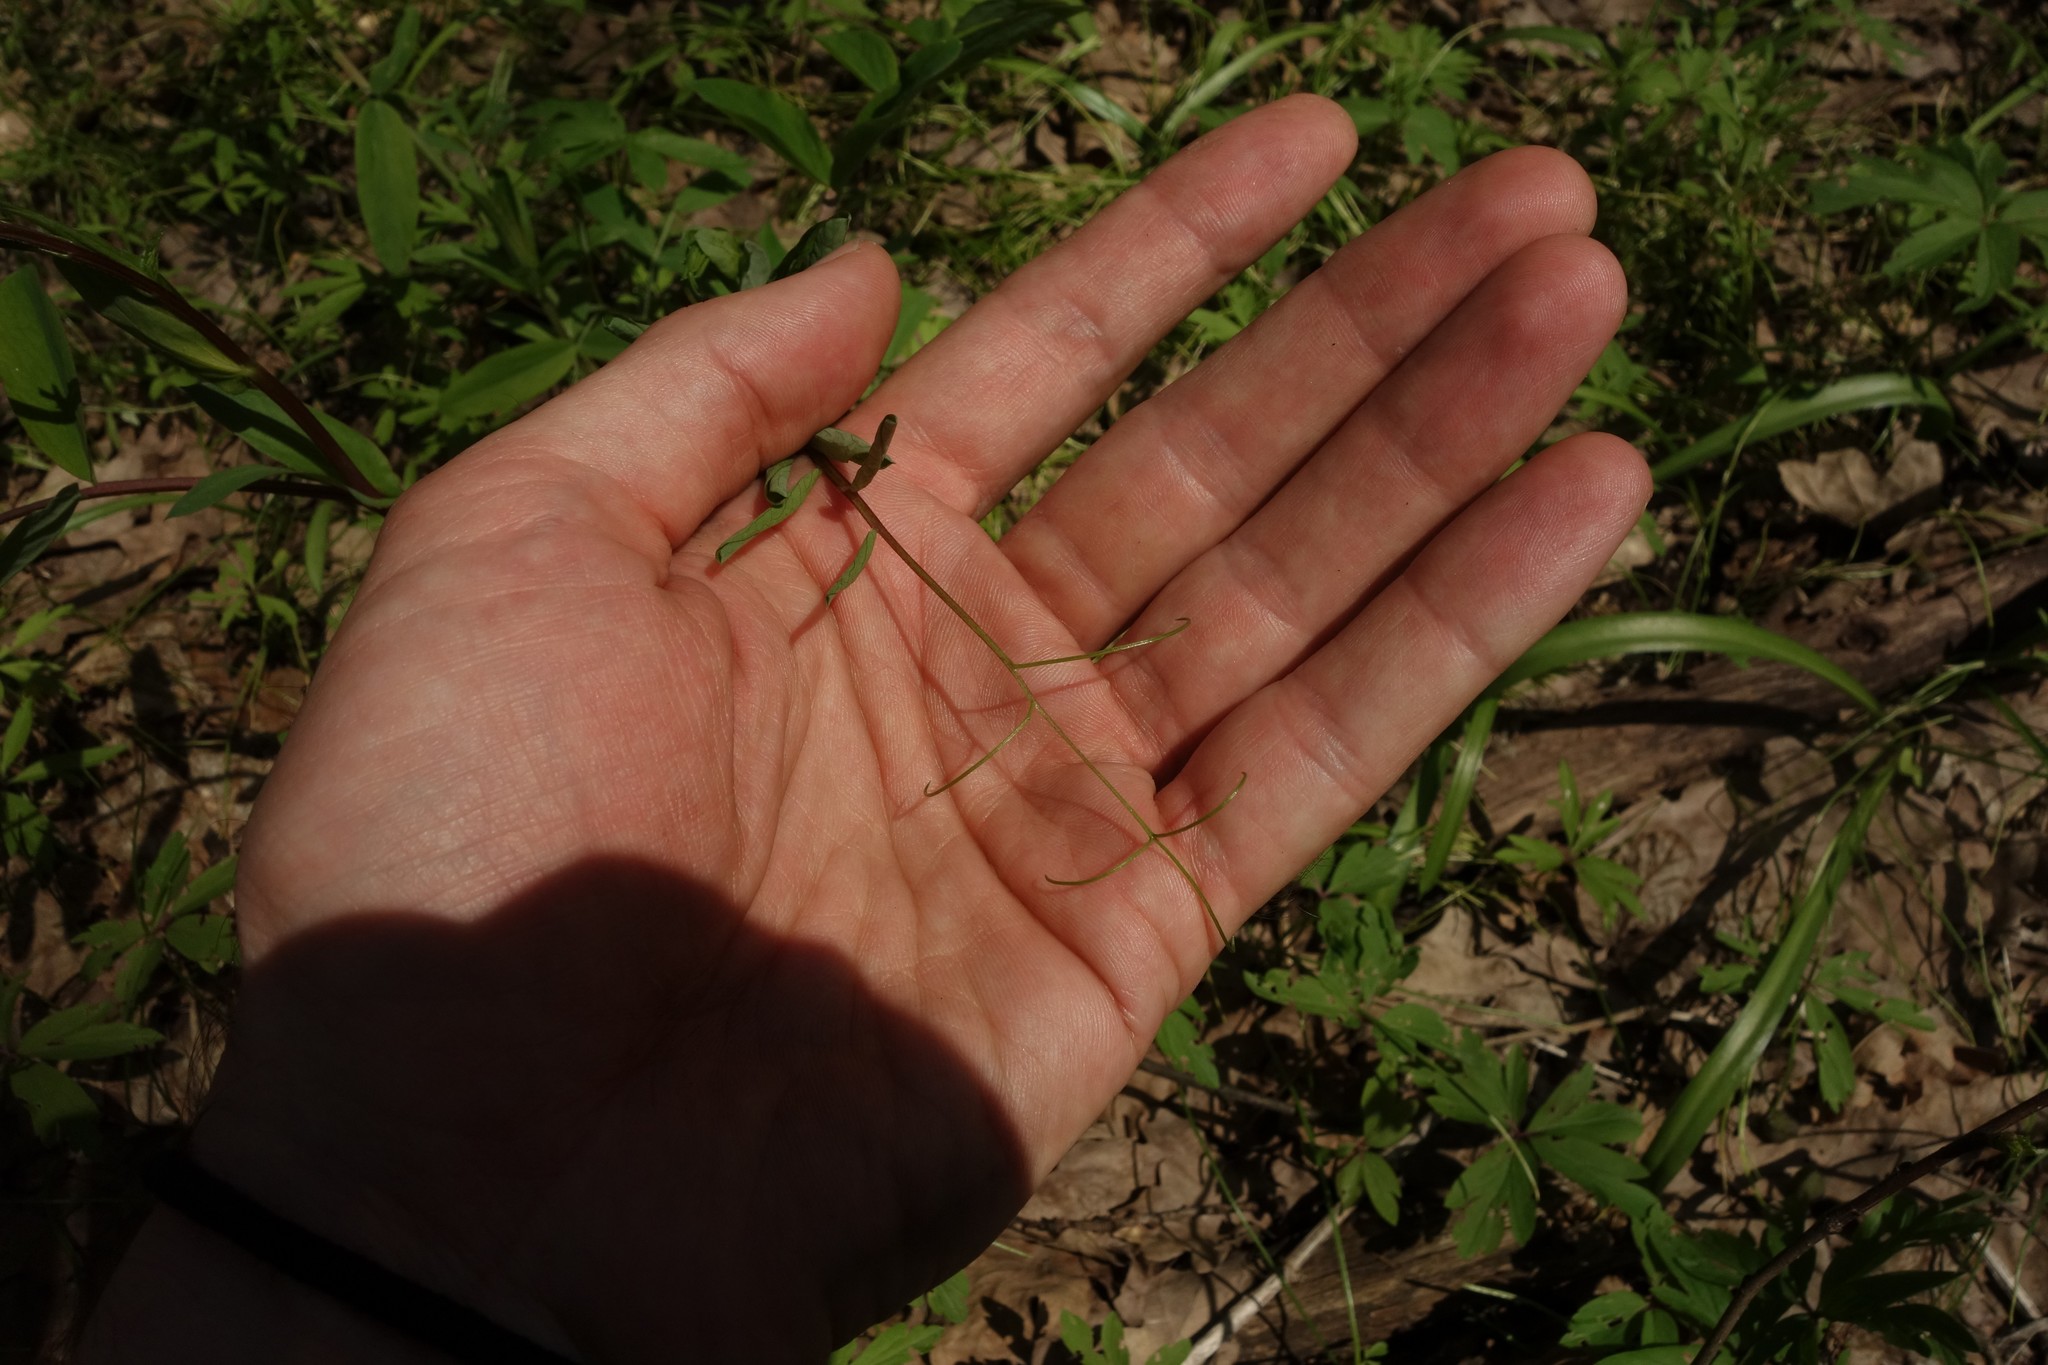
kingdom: Plantae
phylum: Tracheophyta
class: Magnoliopsida
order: Fabales
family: Fabaceae
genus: Lathyrus
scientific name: Lathyrus pisiformis
